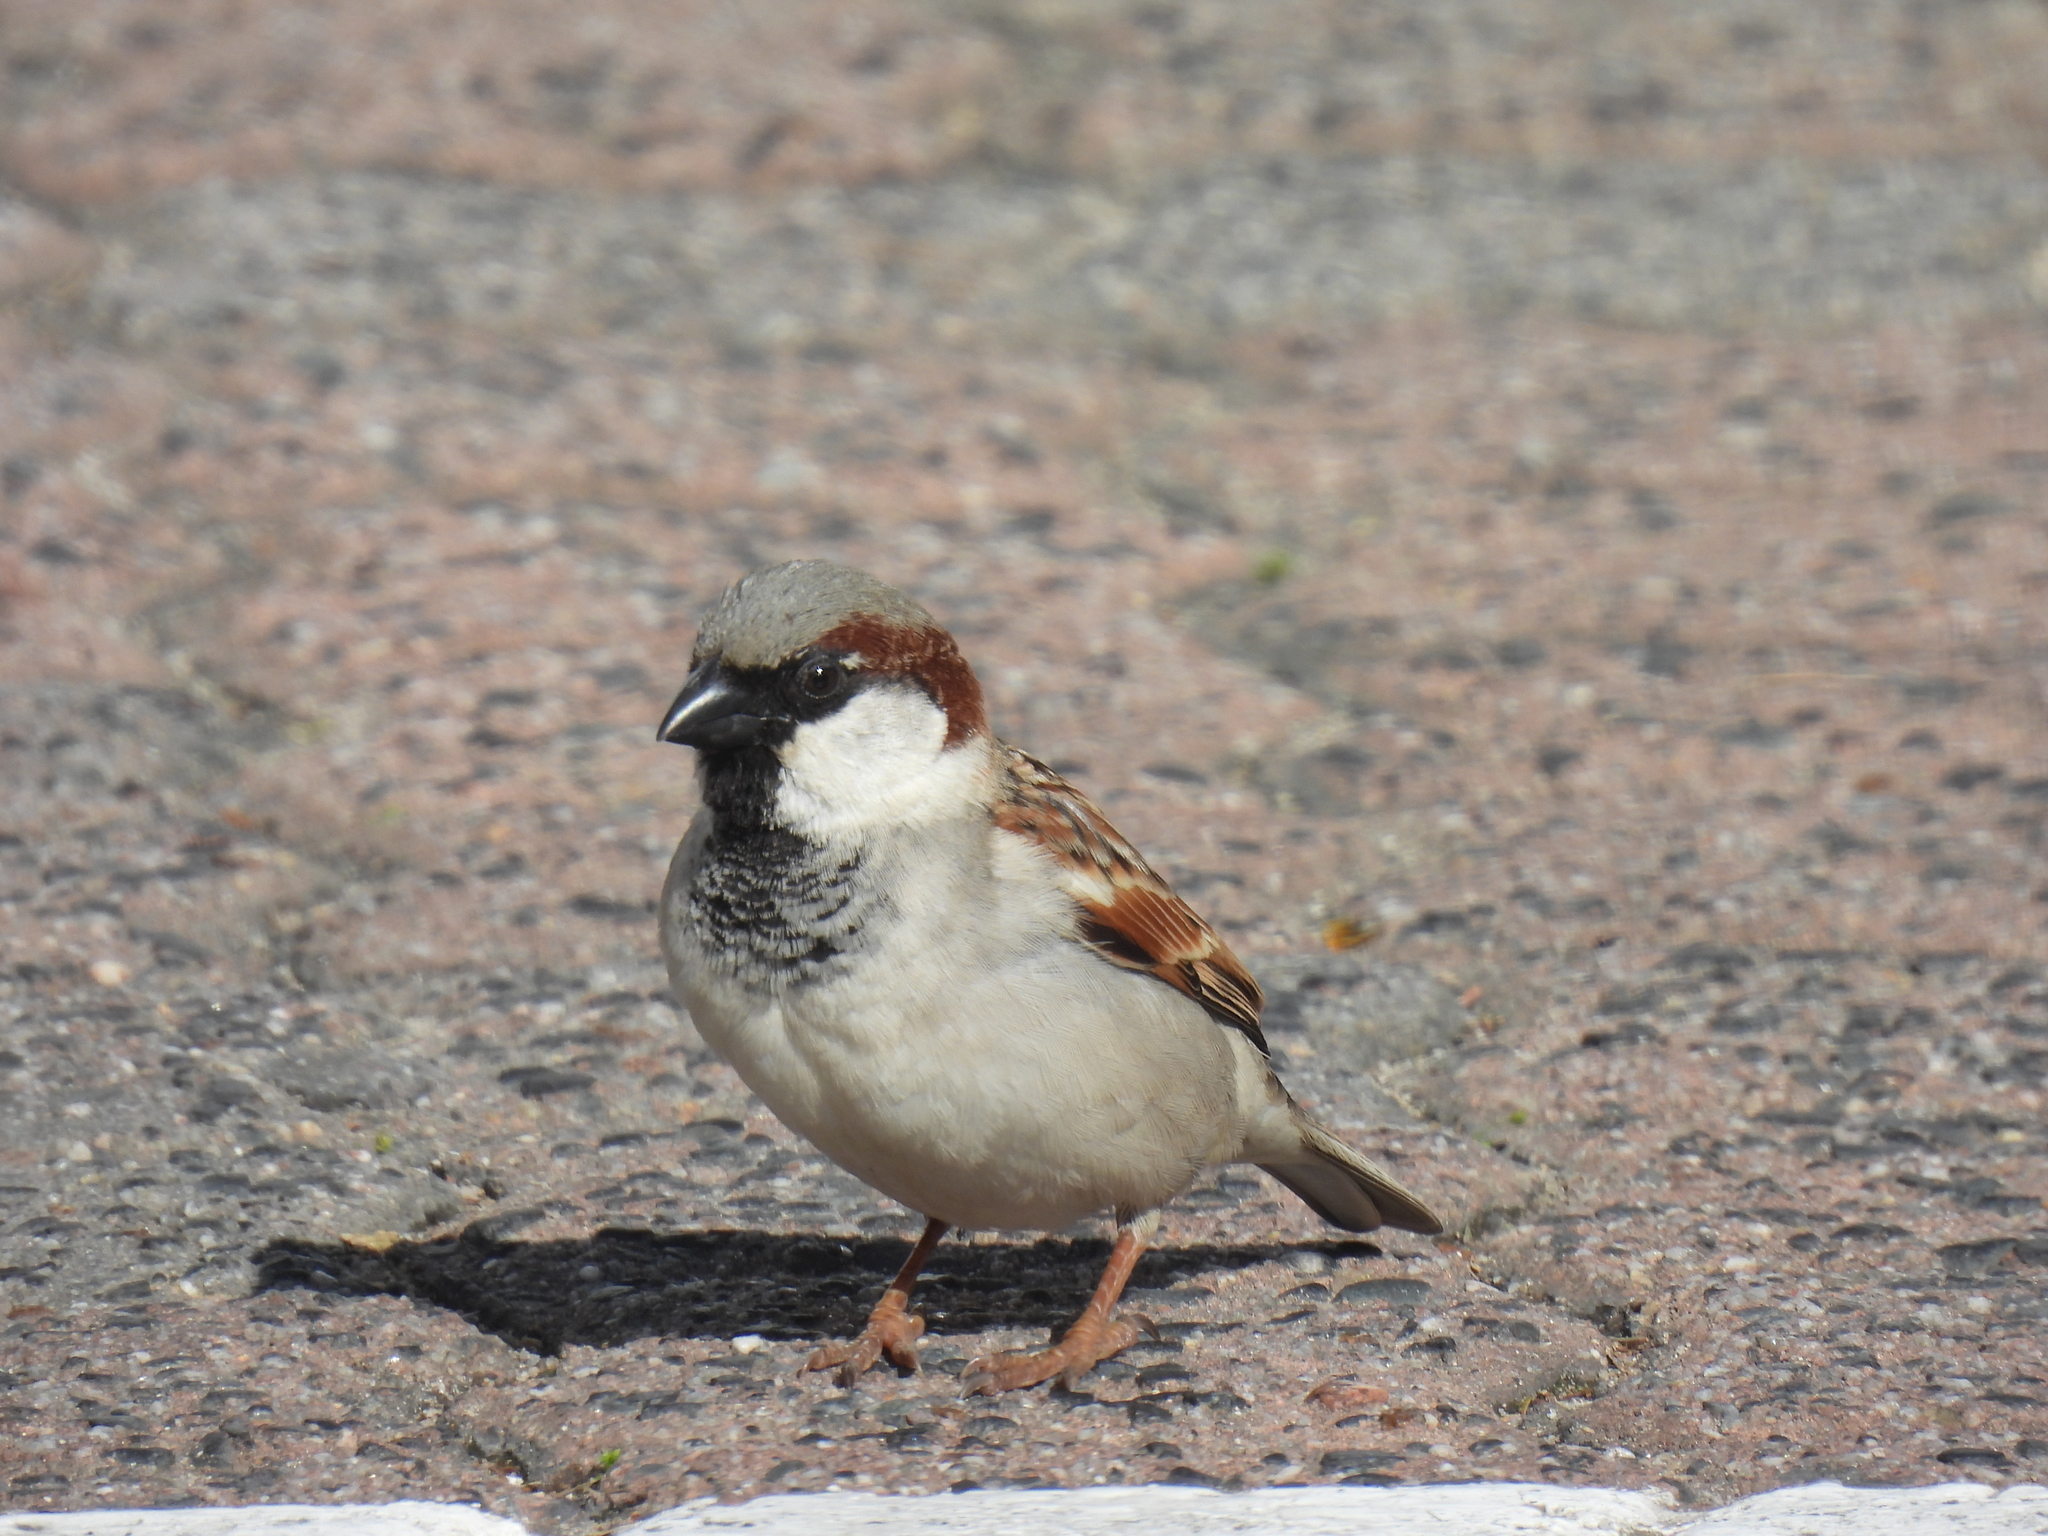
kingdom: Animalia
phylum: Chordata
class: Aves
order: Passeriformes
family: Passeridae
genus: Passer
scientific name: Passer domesticus
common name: House sparrow
